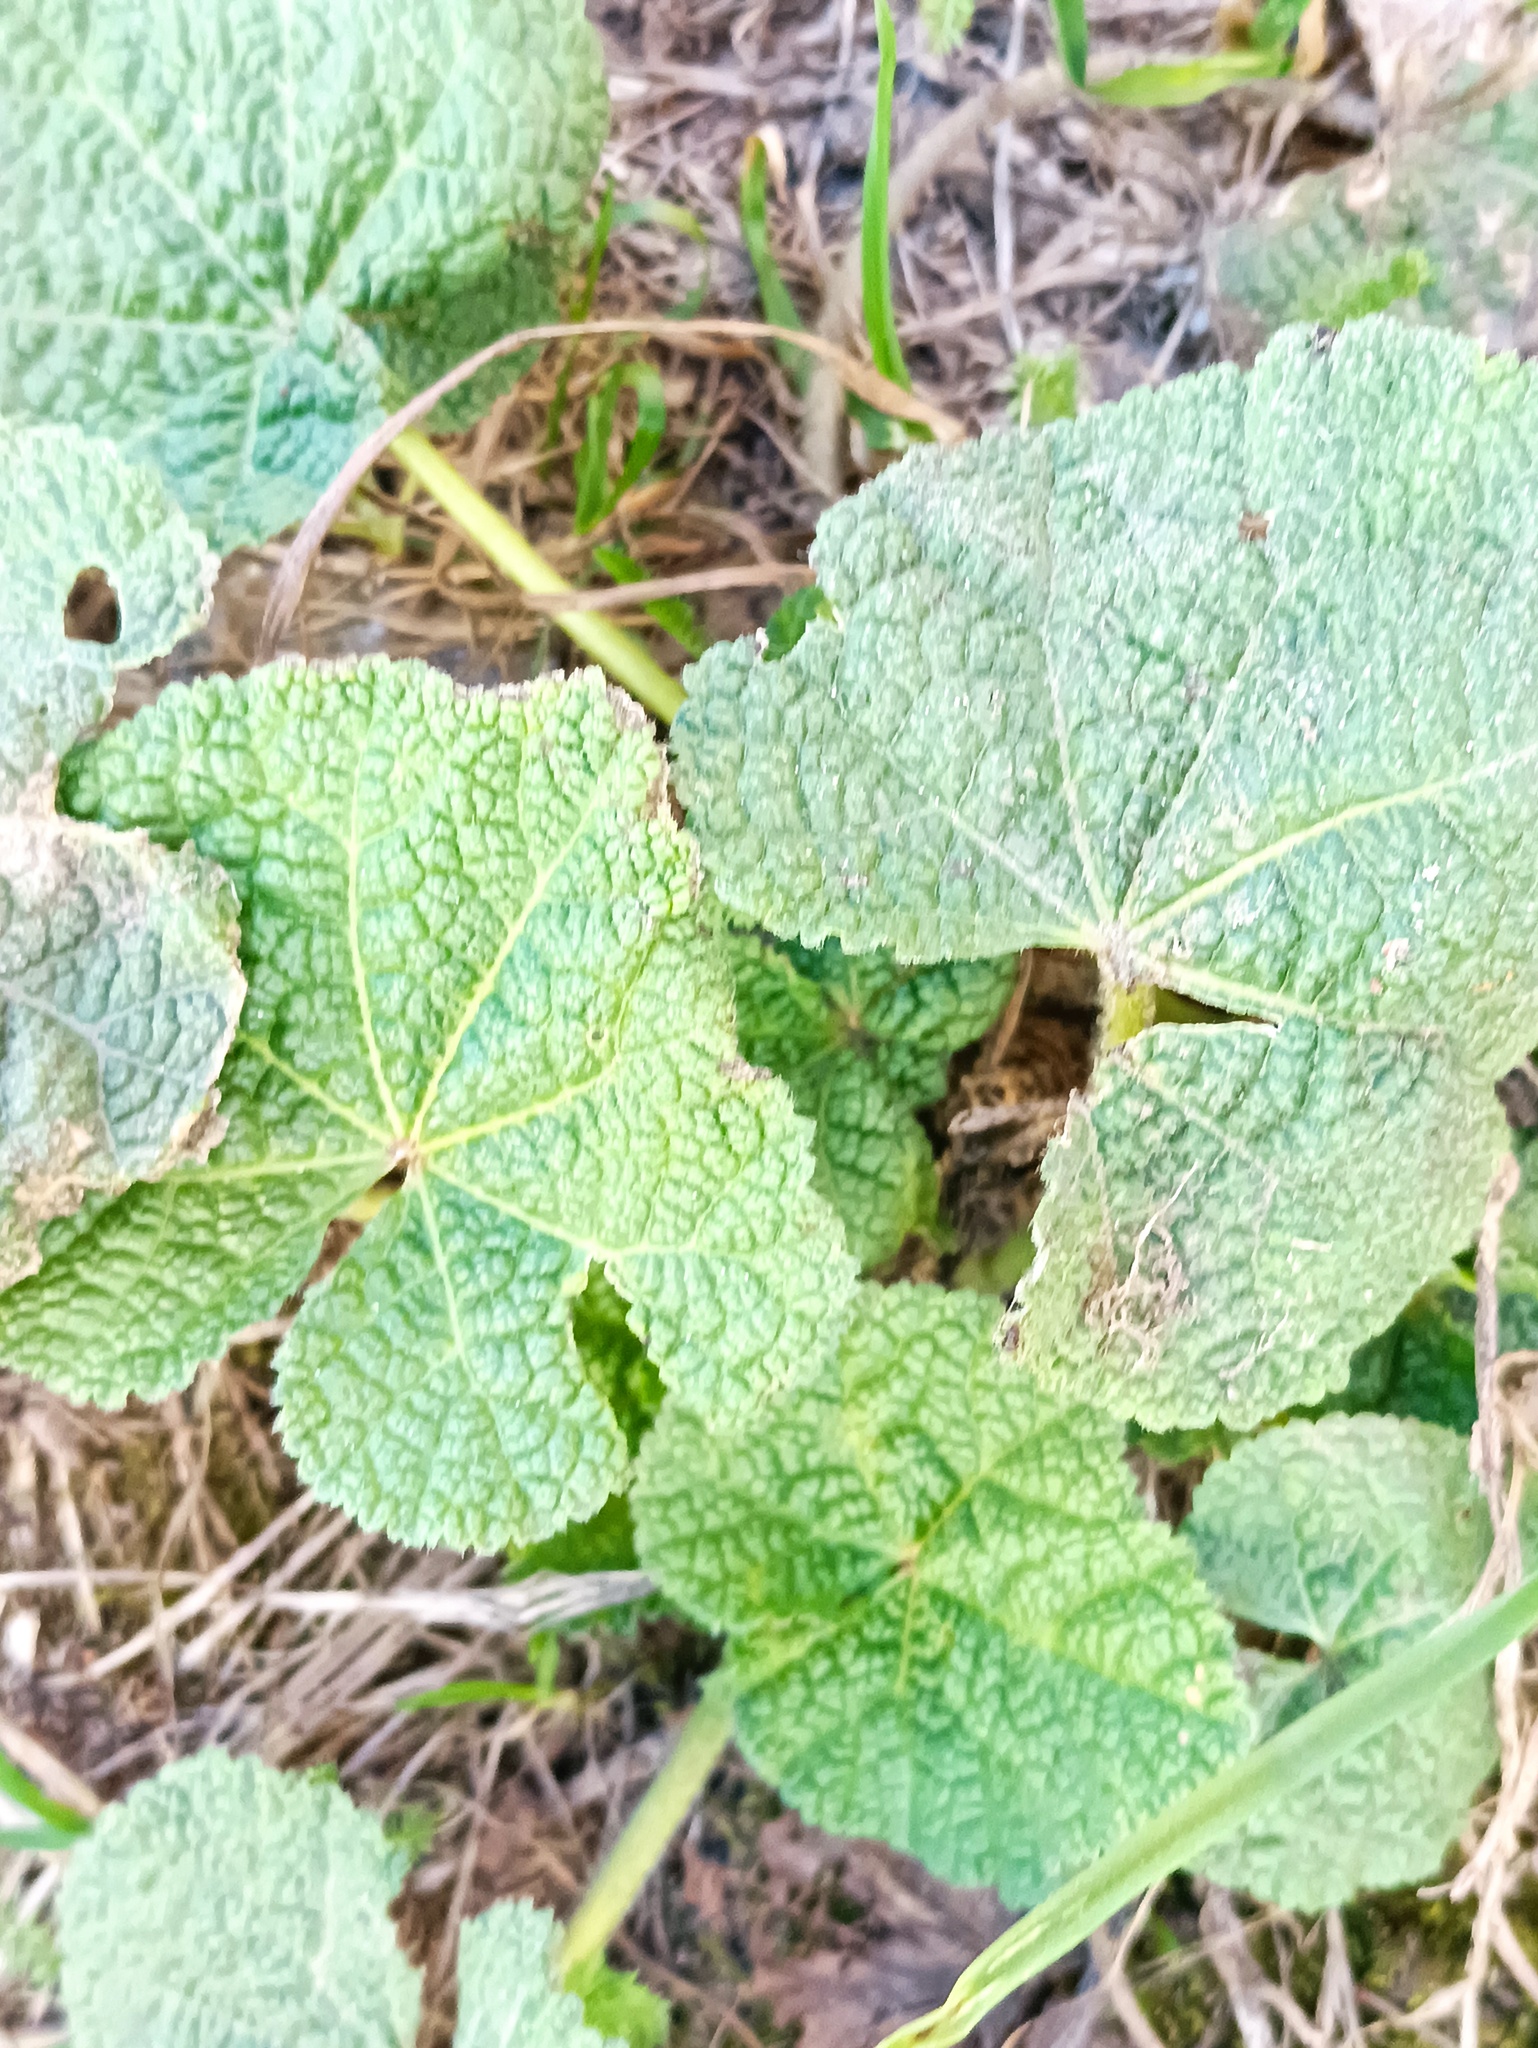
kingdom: Plantae
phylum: Tracheophyta
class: Magnoliopsida
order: Malvales
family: Malvaceae
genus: Alcea
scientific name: Alcea rosea
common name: Hollyhock
